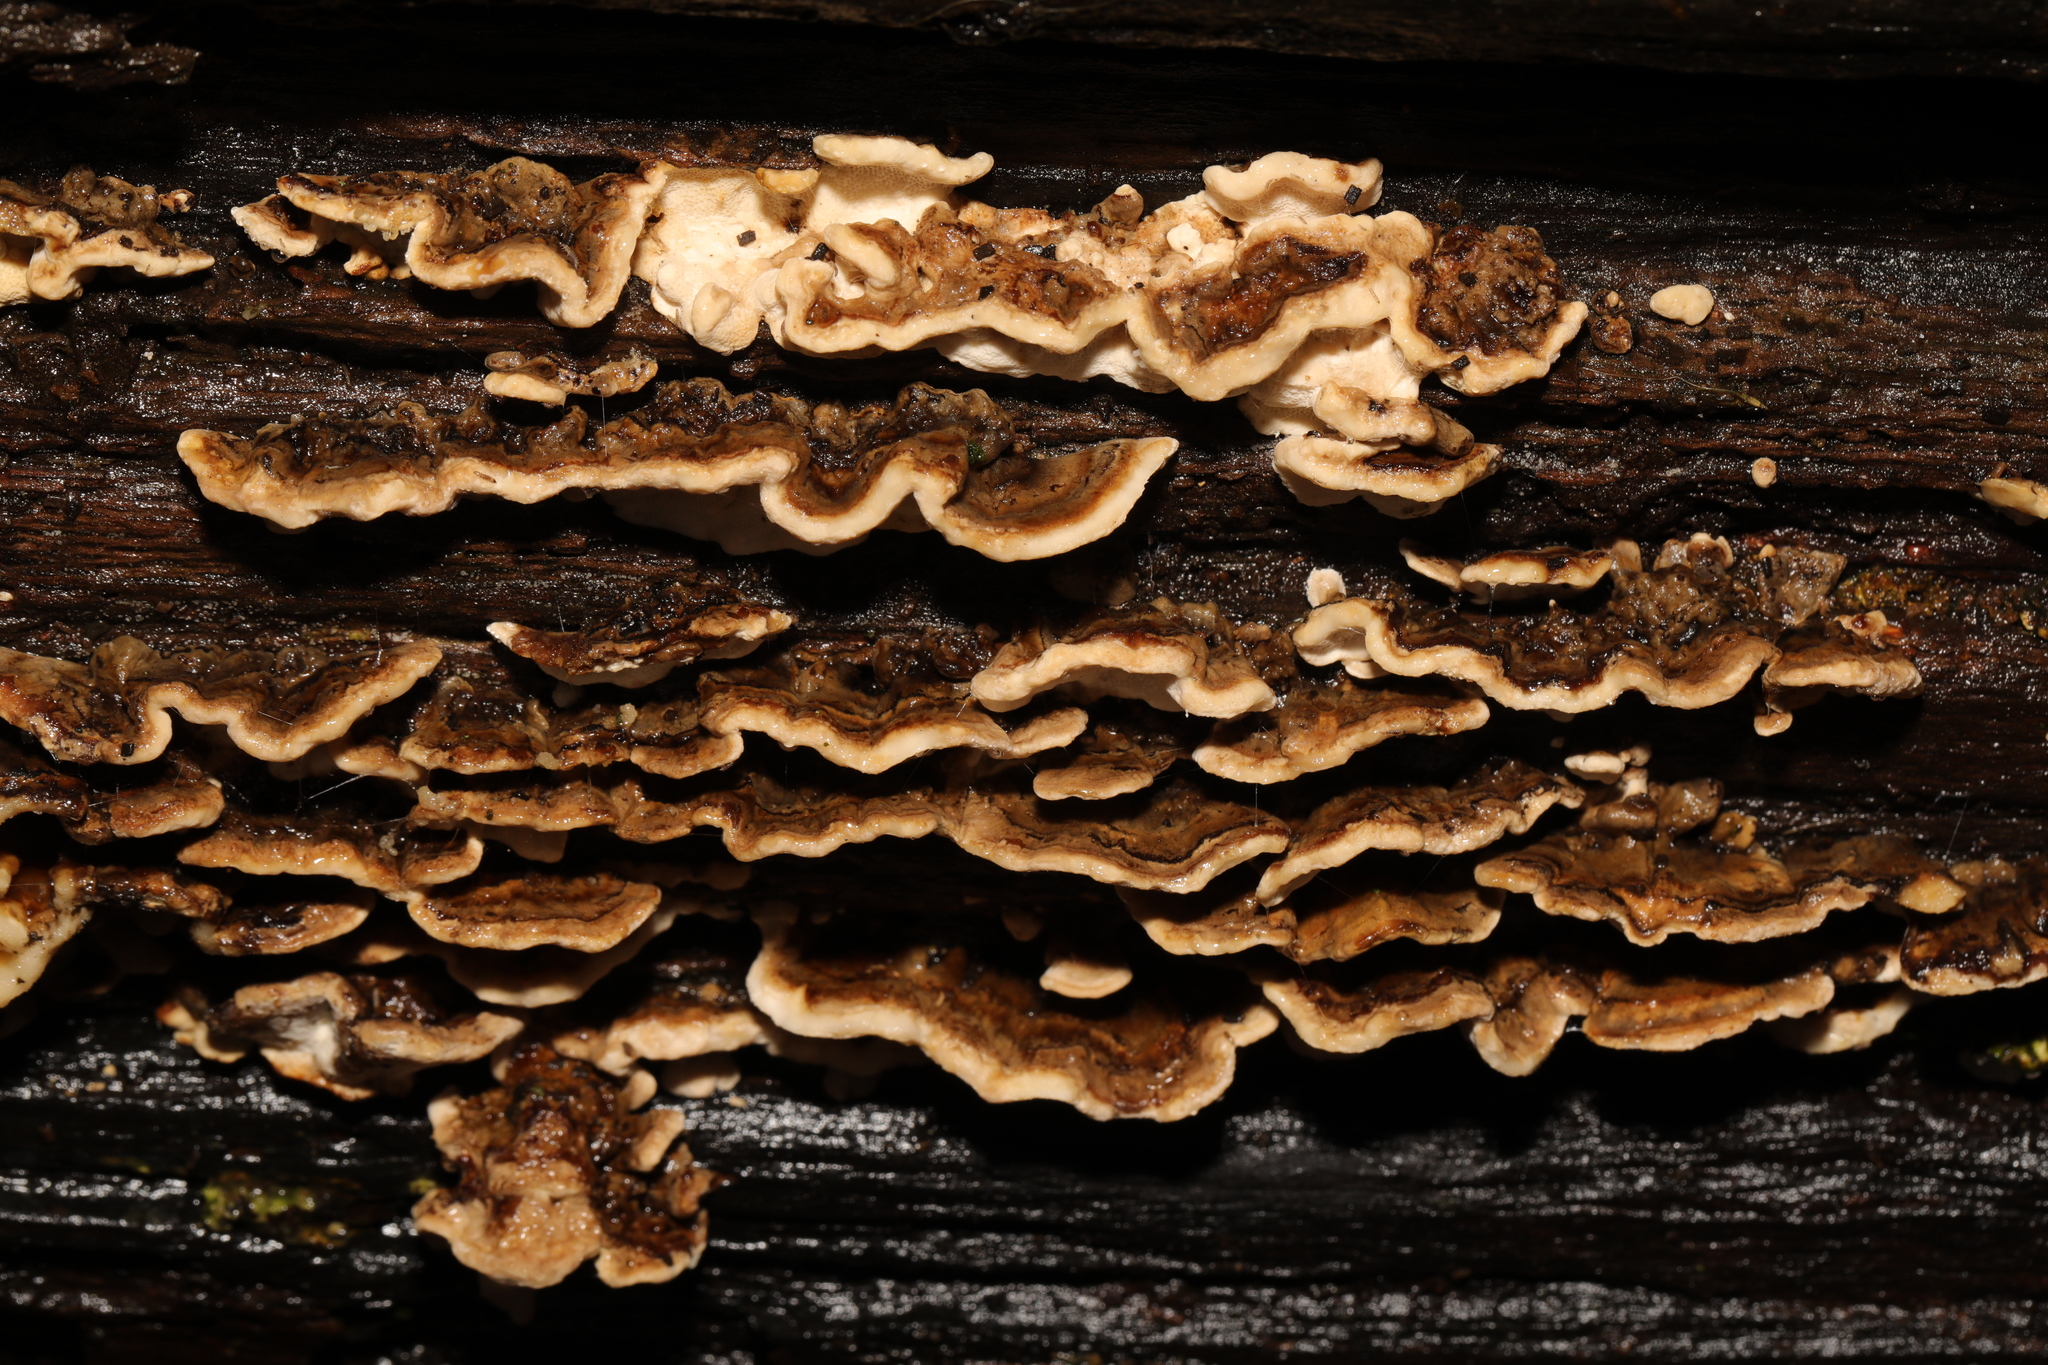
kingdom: Fungi
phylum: Basidiomycota
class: Agaricomycetes
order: Russulales
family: Stereaceae
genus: Stereum
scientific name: Stereum hirsutum
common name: Hairy curtain crust
